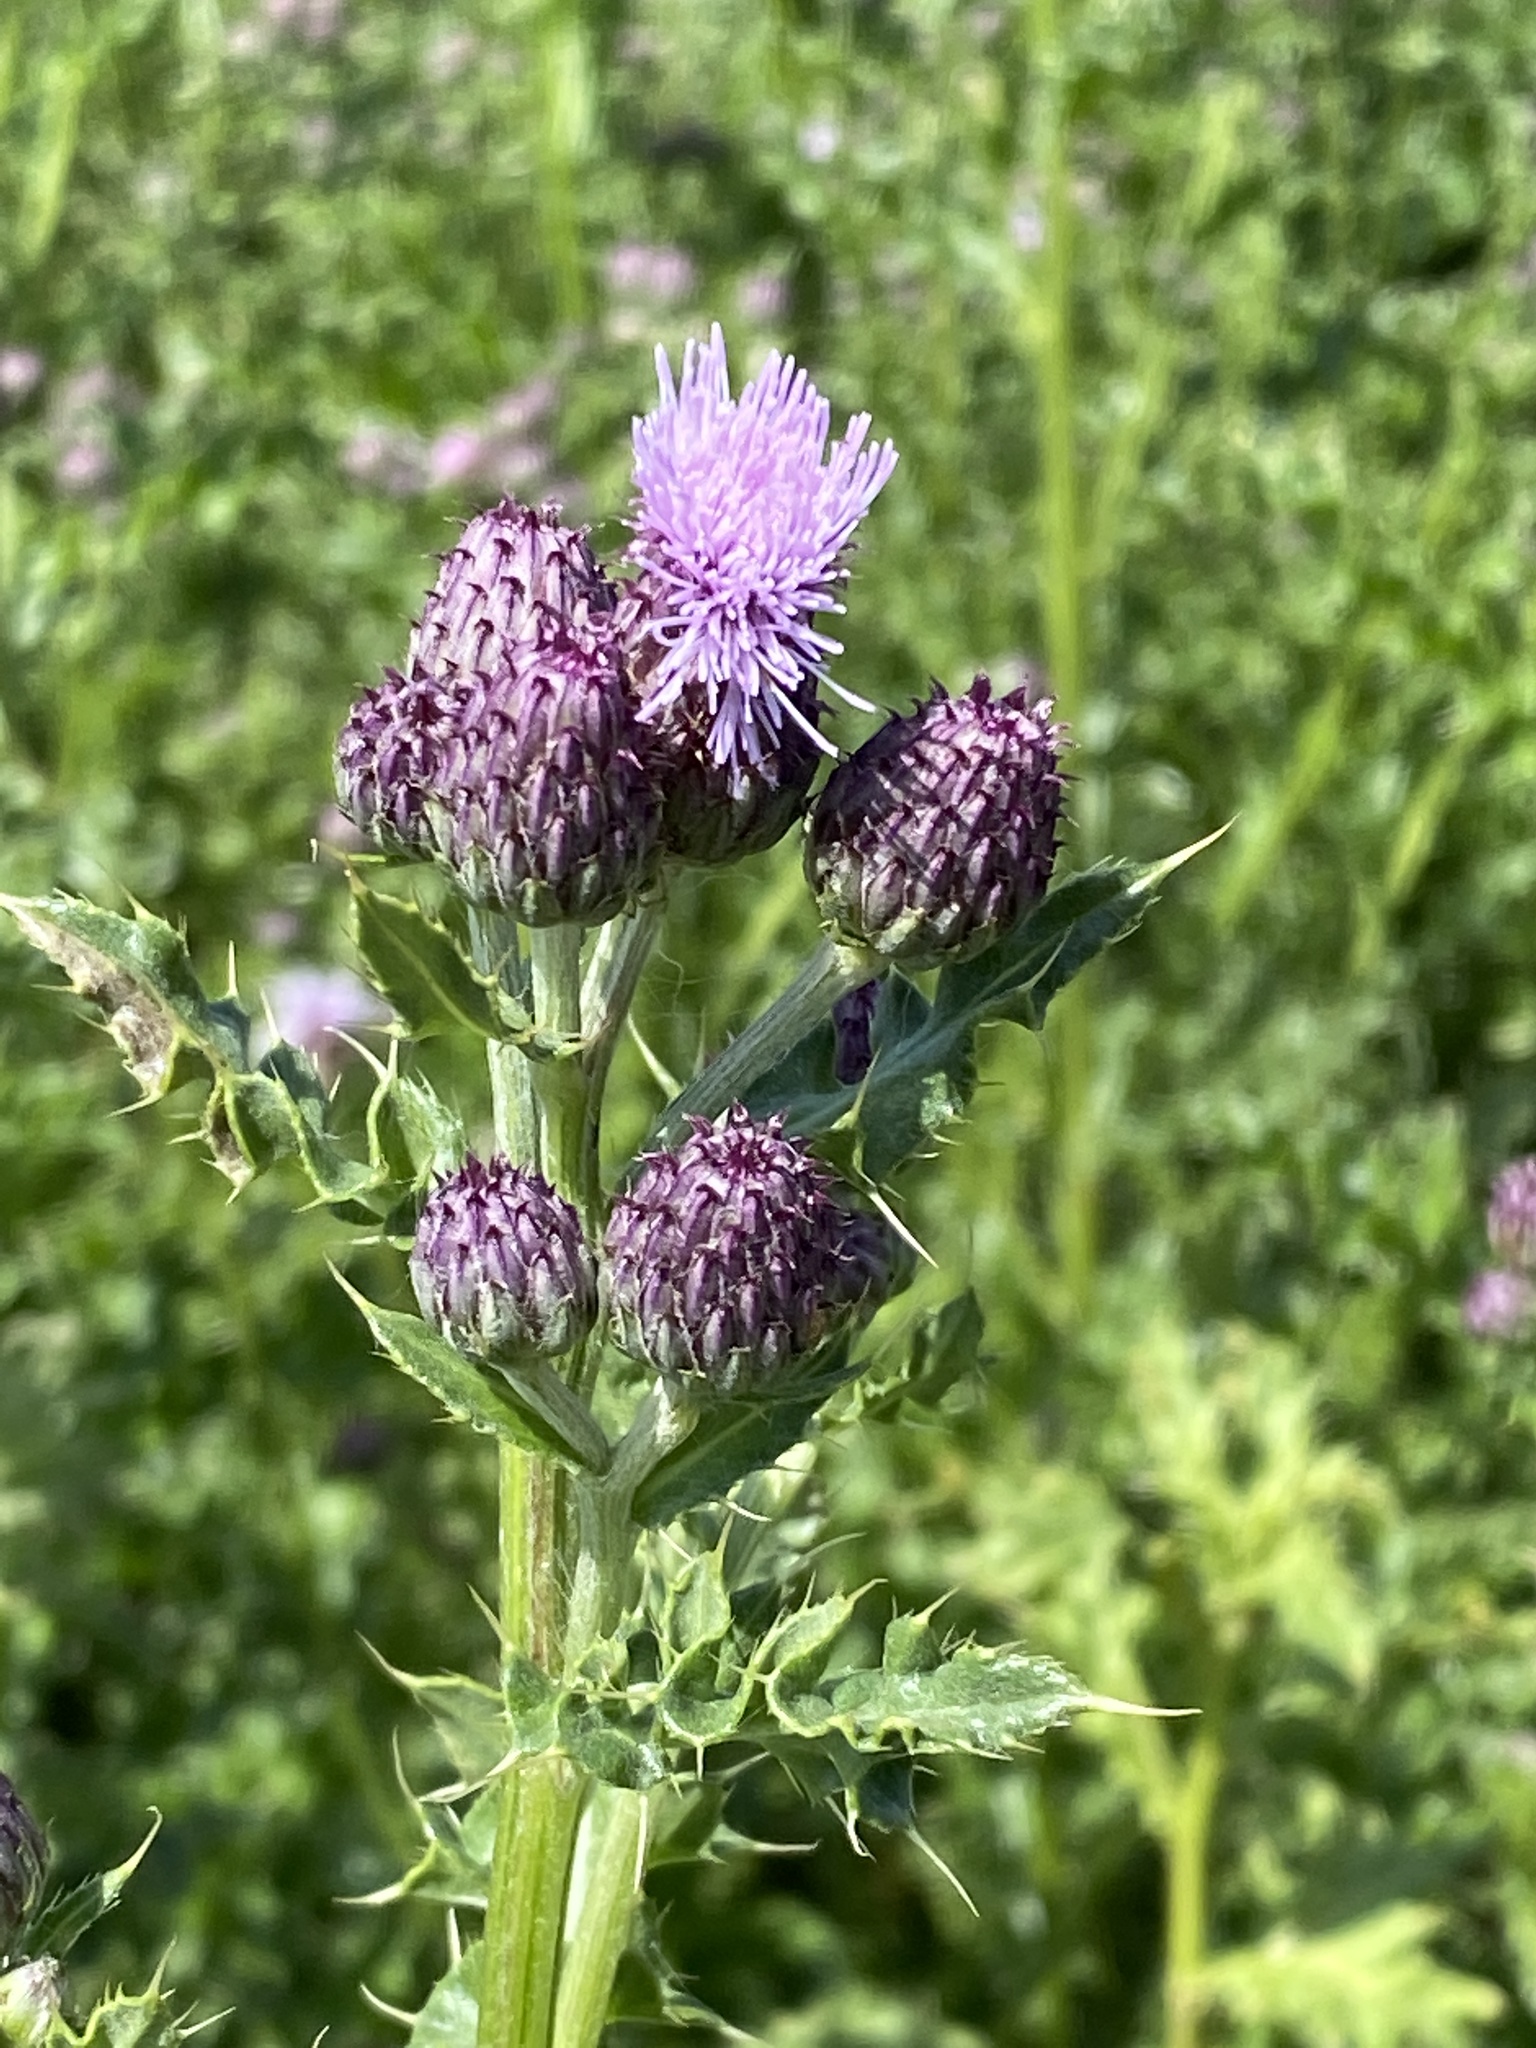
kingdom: Plantae
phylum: Tracheophyta
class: Magnoliopsida
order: Asterales
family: Asteraceae
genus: Cirsium
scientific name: Cirsium arvense
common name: Creeping thistle
